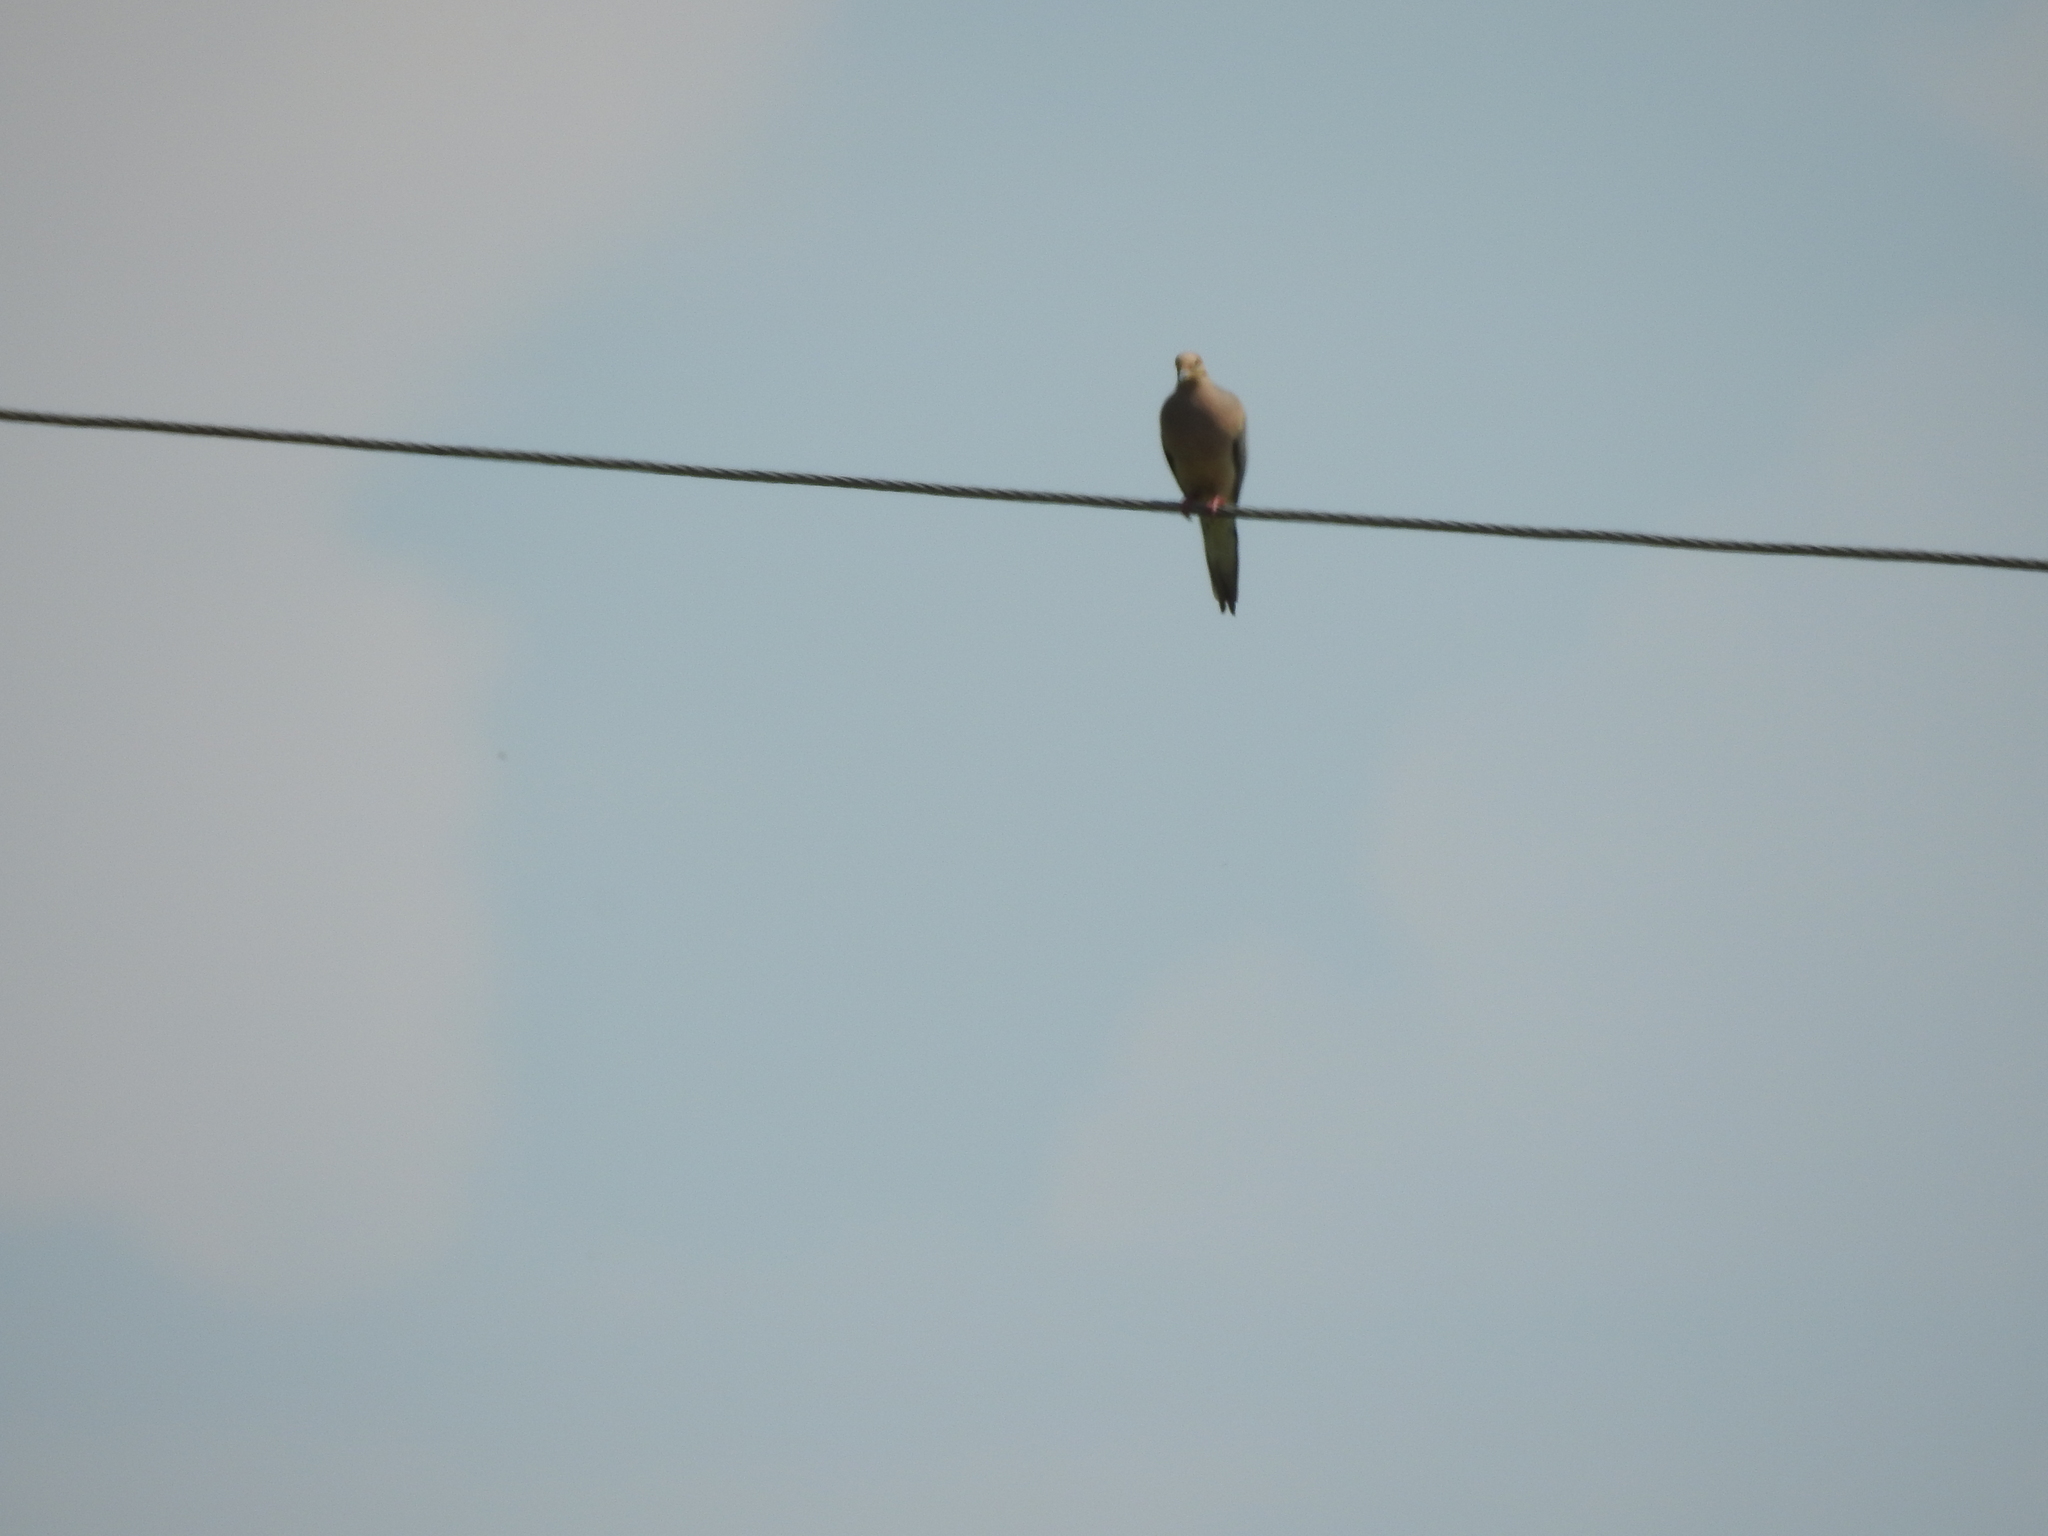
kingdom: Animalia
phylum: Chordata
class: Aves
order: Columbiformes
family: Columbidae
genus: Zenaida
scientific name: Zenaida macroura
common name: Mourning dove
